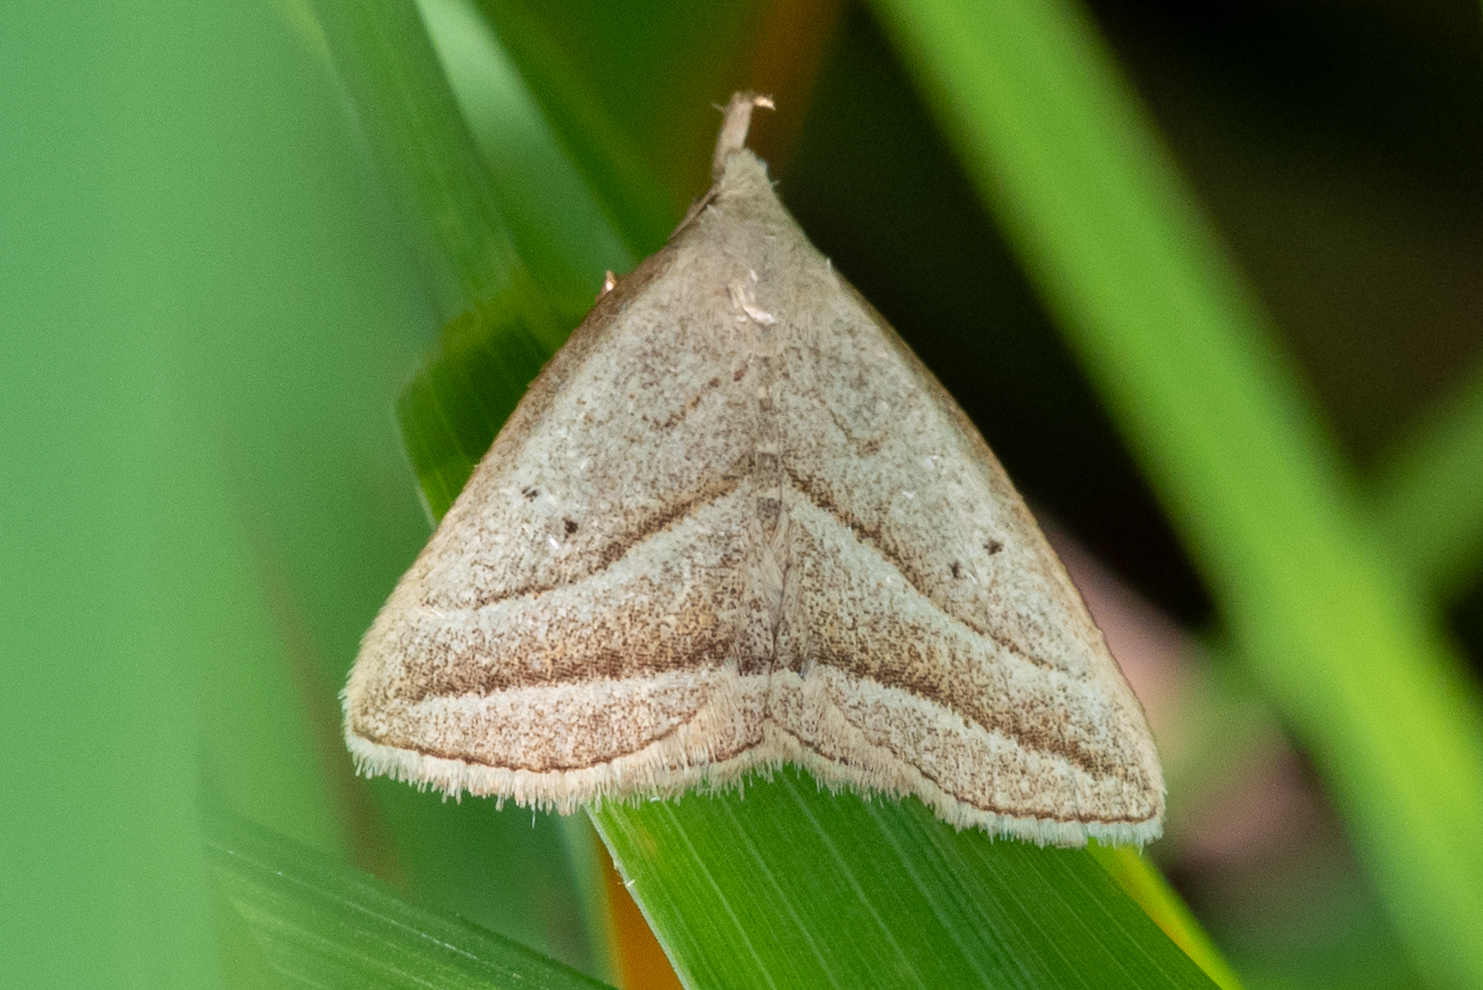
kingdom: Animalia
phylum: Arthropoda
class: Insecta
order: Lepidoptera
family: Erebidae
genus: Macrochilo
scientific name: Macrochilo absorptalis
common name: Slant-lined owlet
